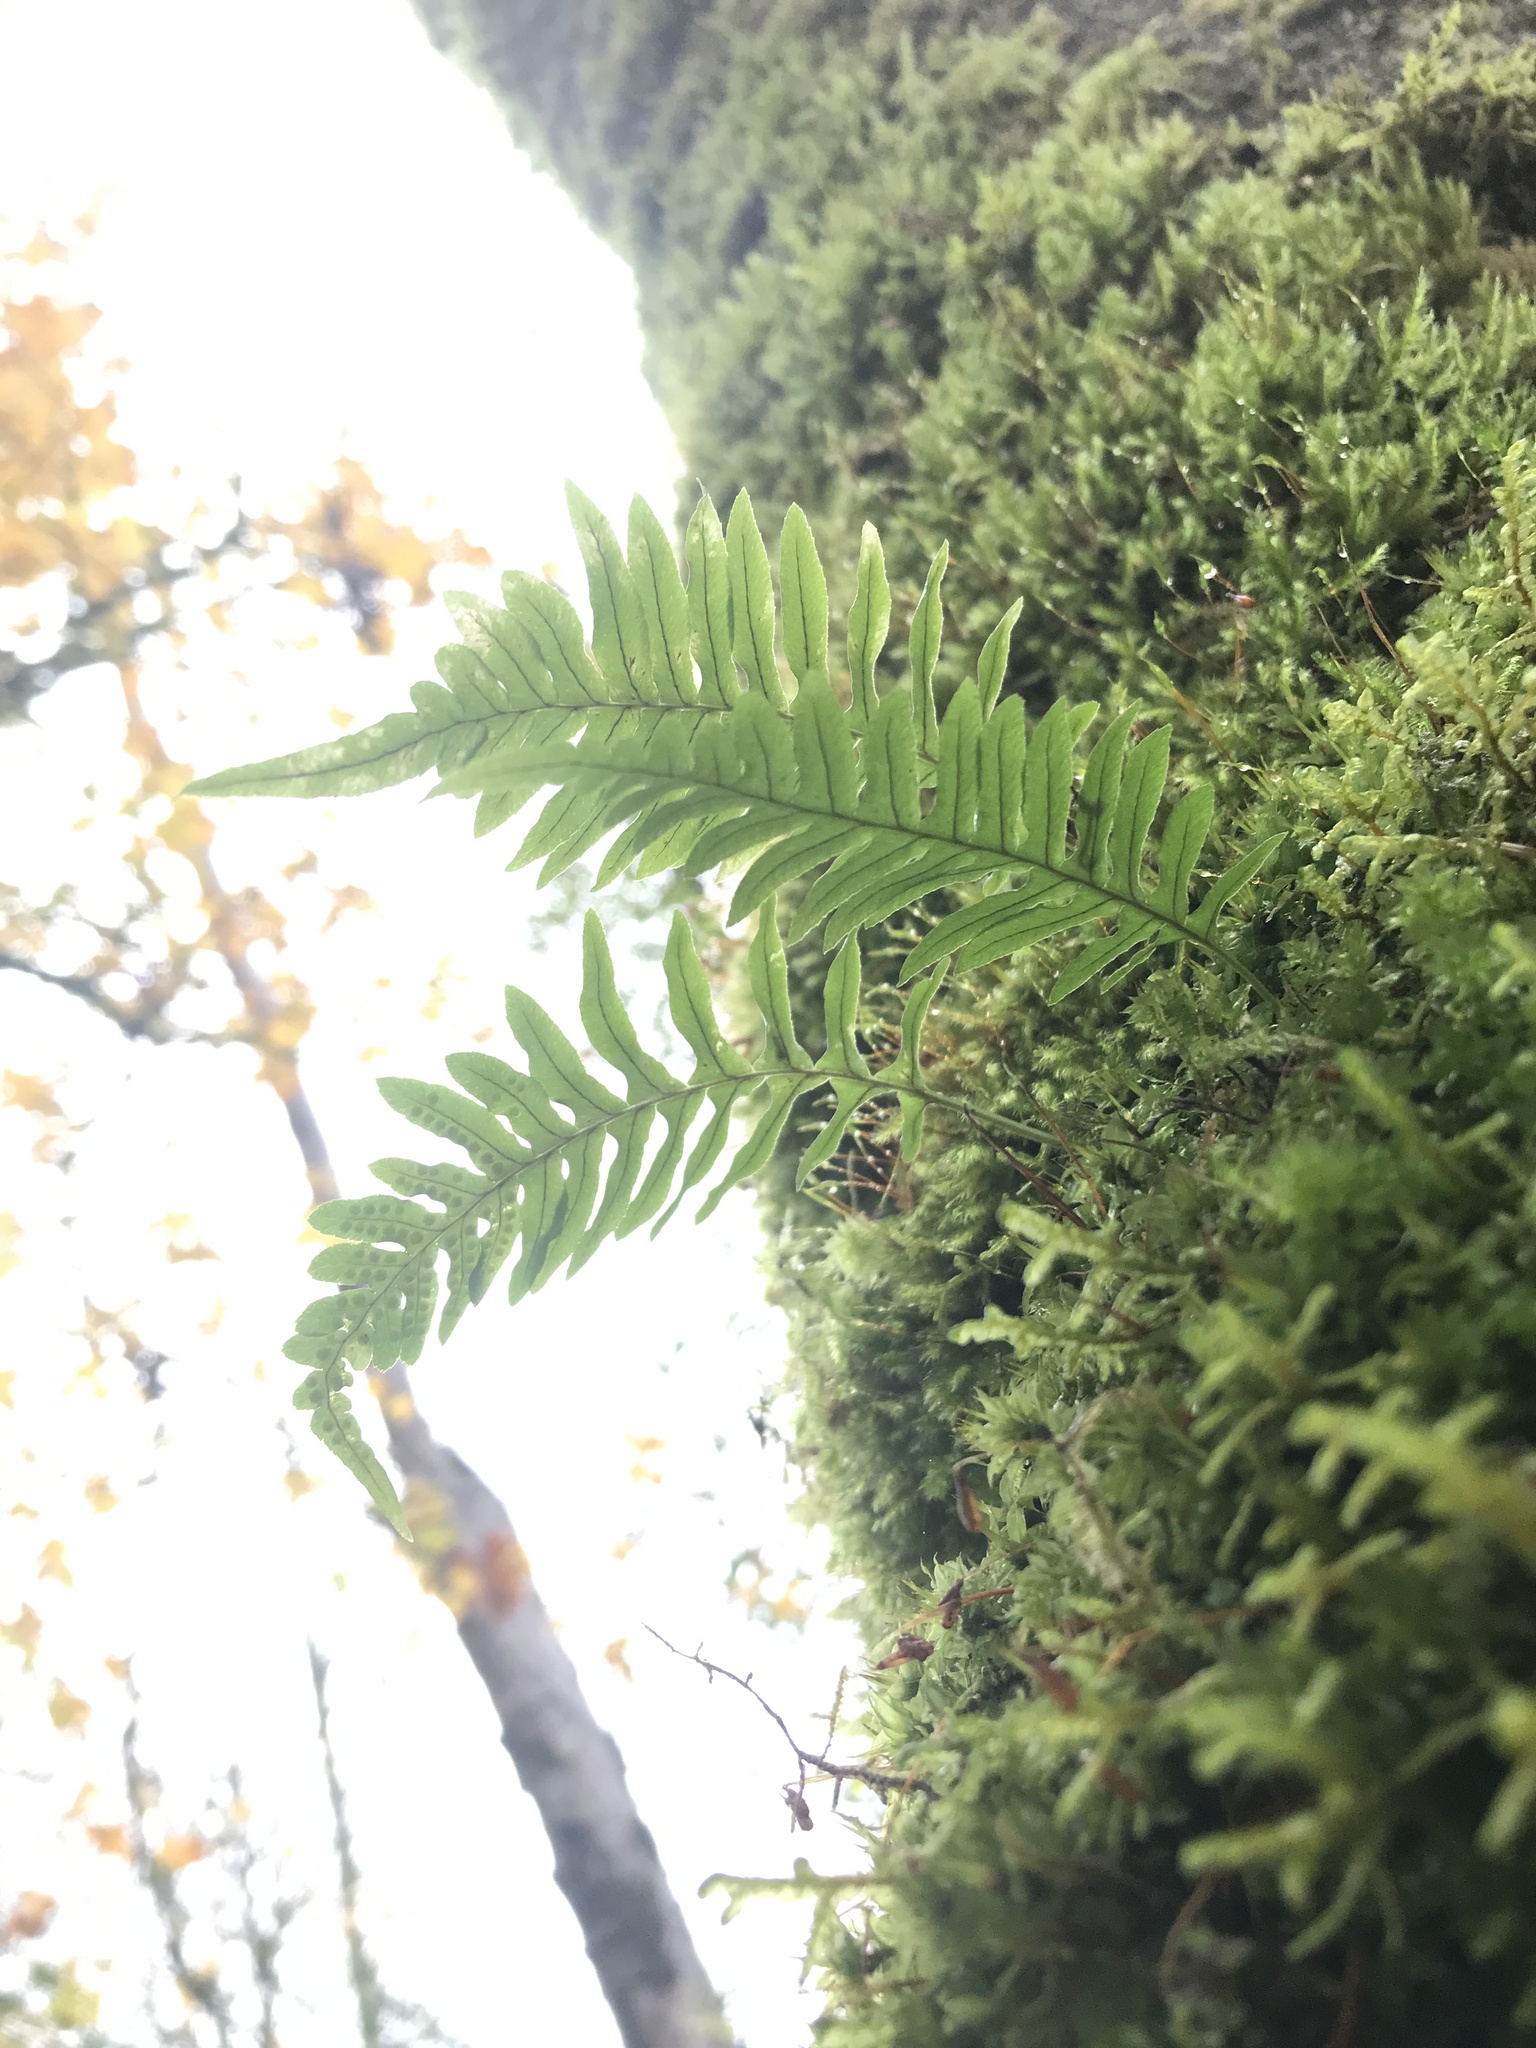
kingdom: Plantae
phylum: Tracheophyta
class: Polypodiopsida
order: Polypodiales
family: Polypodiaceae
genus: Polypodium
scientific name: Polypodium glycyrrhiza
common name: Licorice fern
